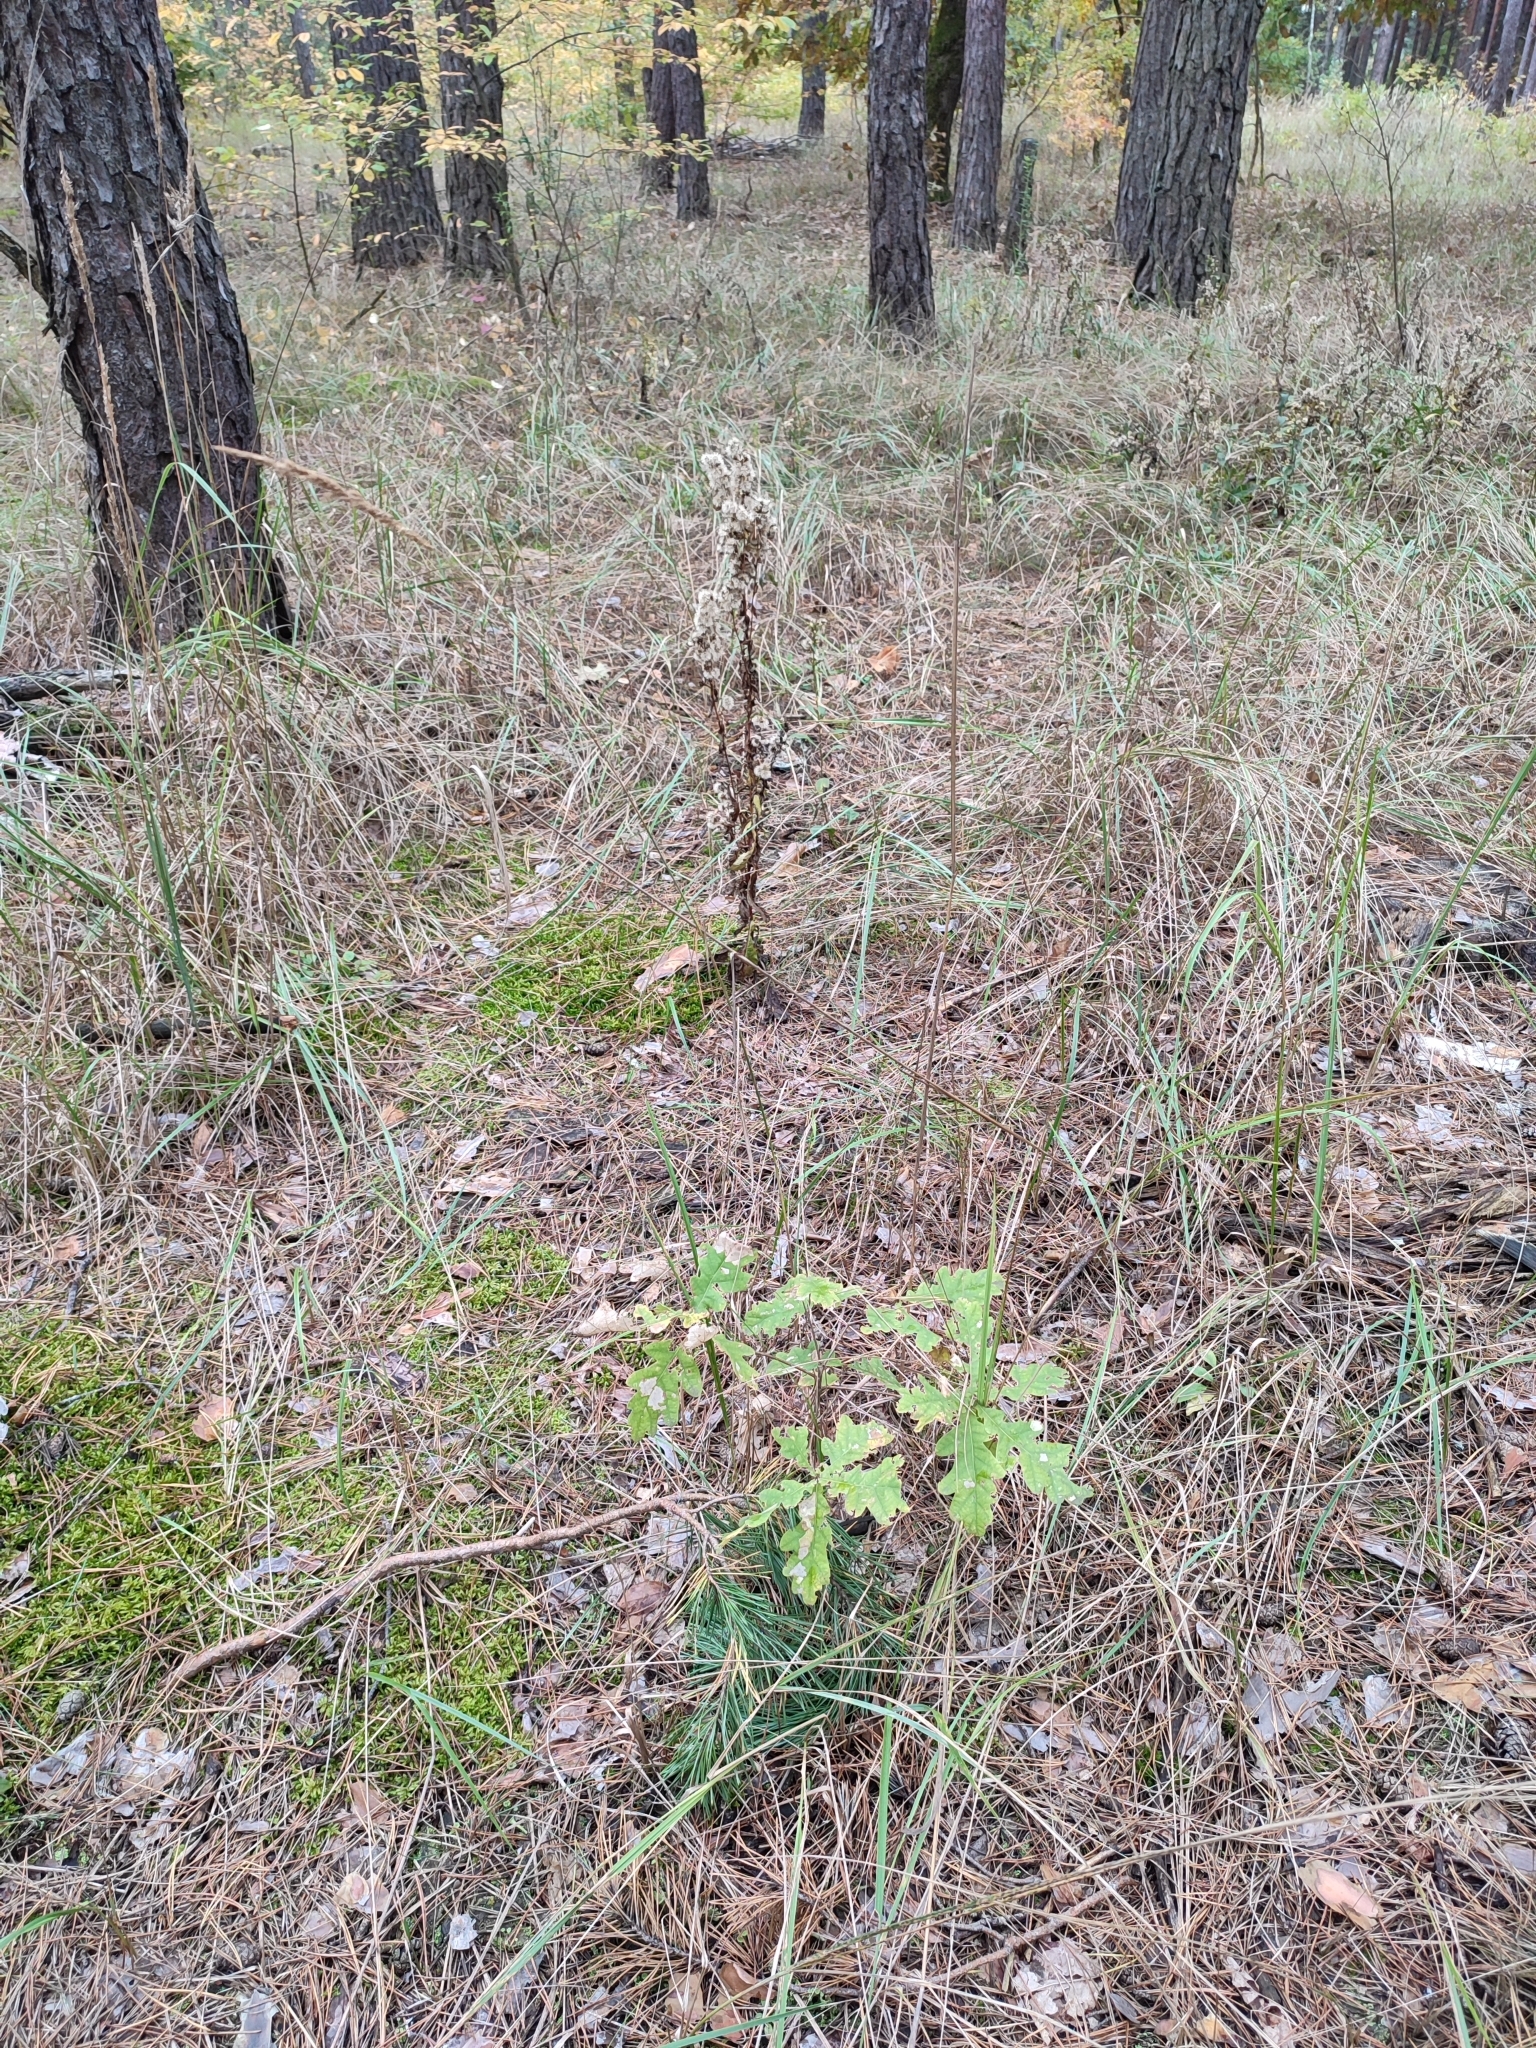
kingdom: Plantae
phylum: Tracheophyta
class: Magnoliopsida
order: Fagales
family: Fagaceae
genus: Quercus
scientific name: Quercus robur
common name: Pedunculate oak
